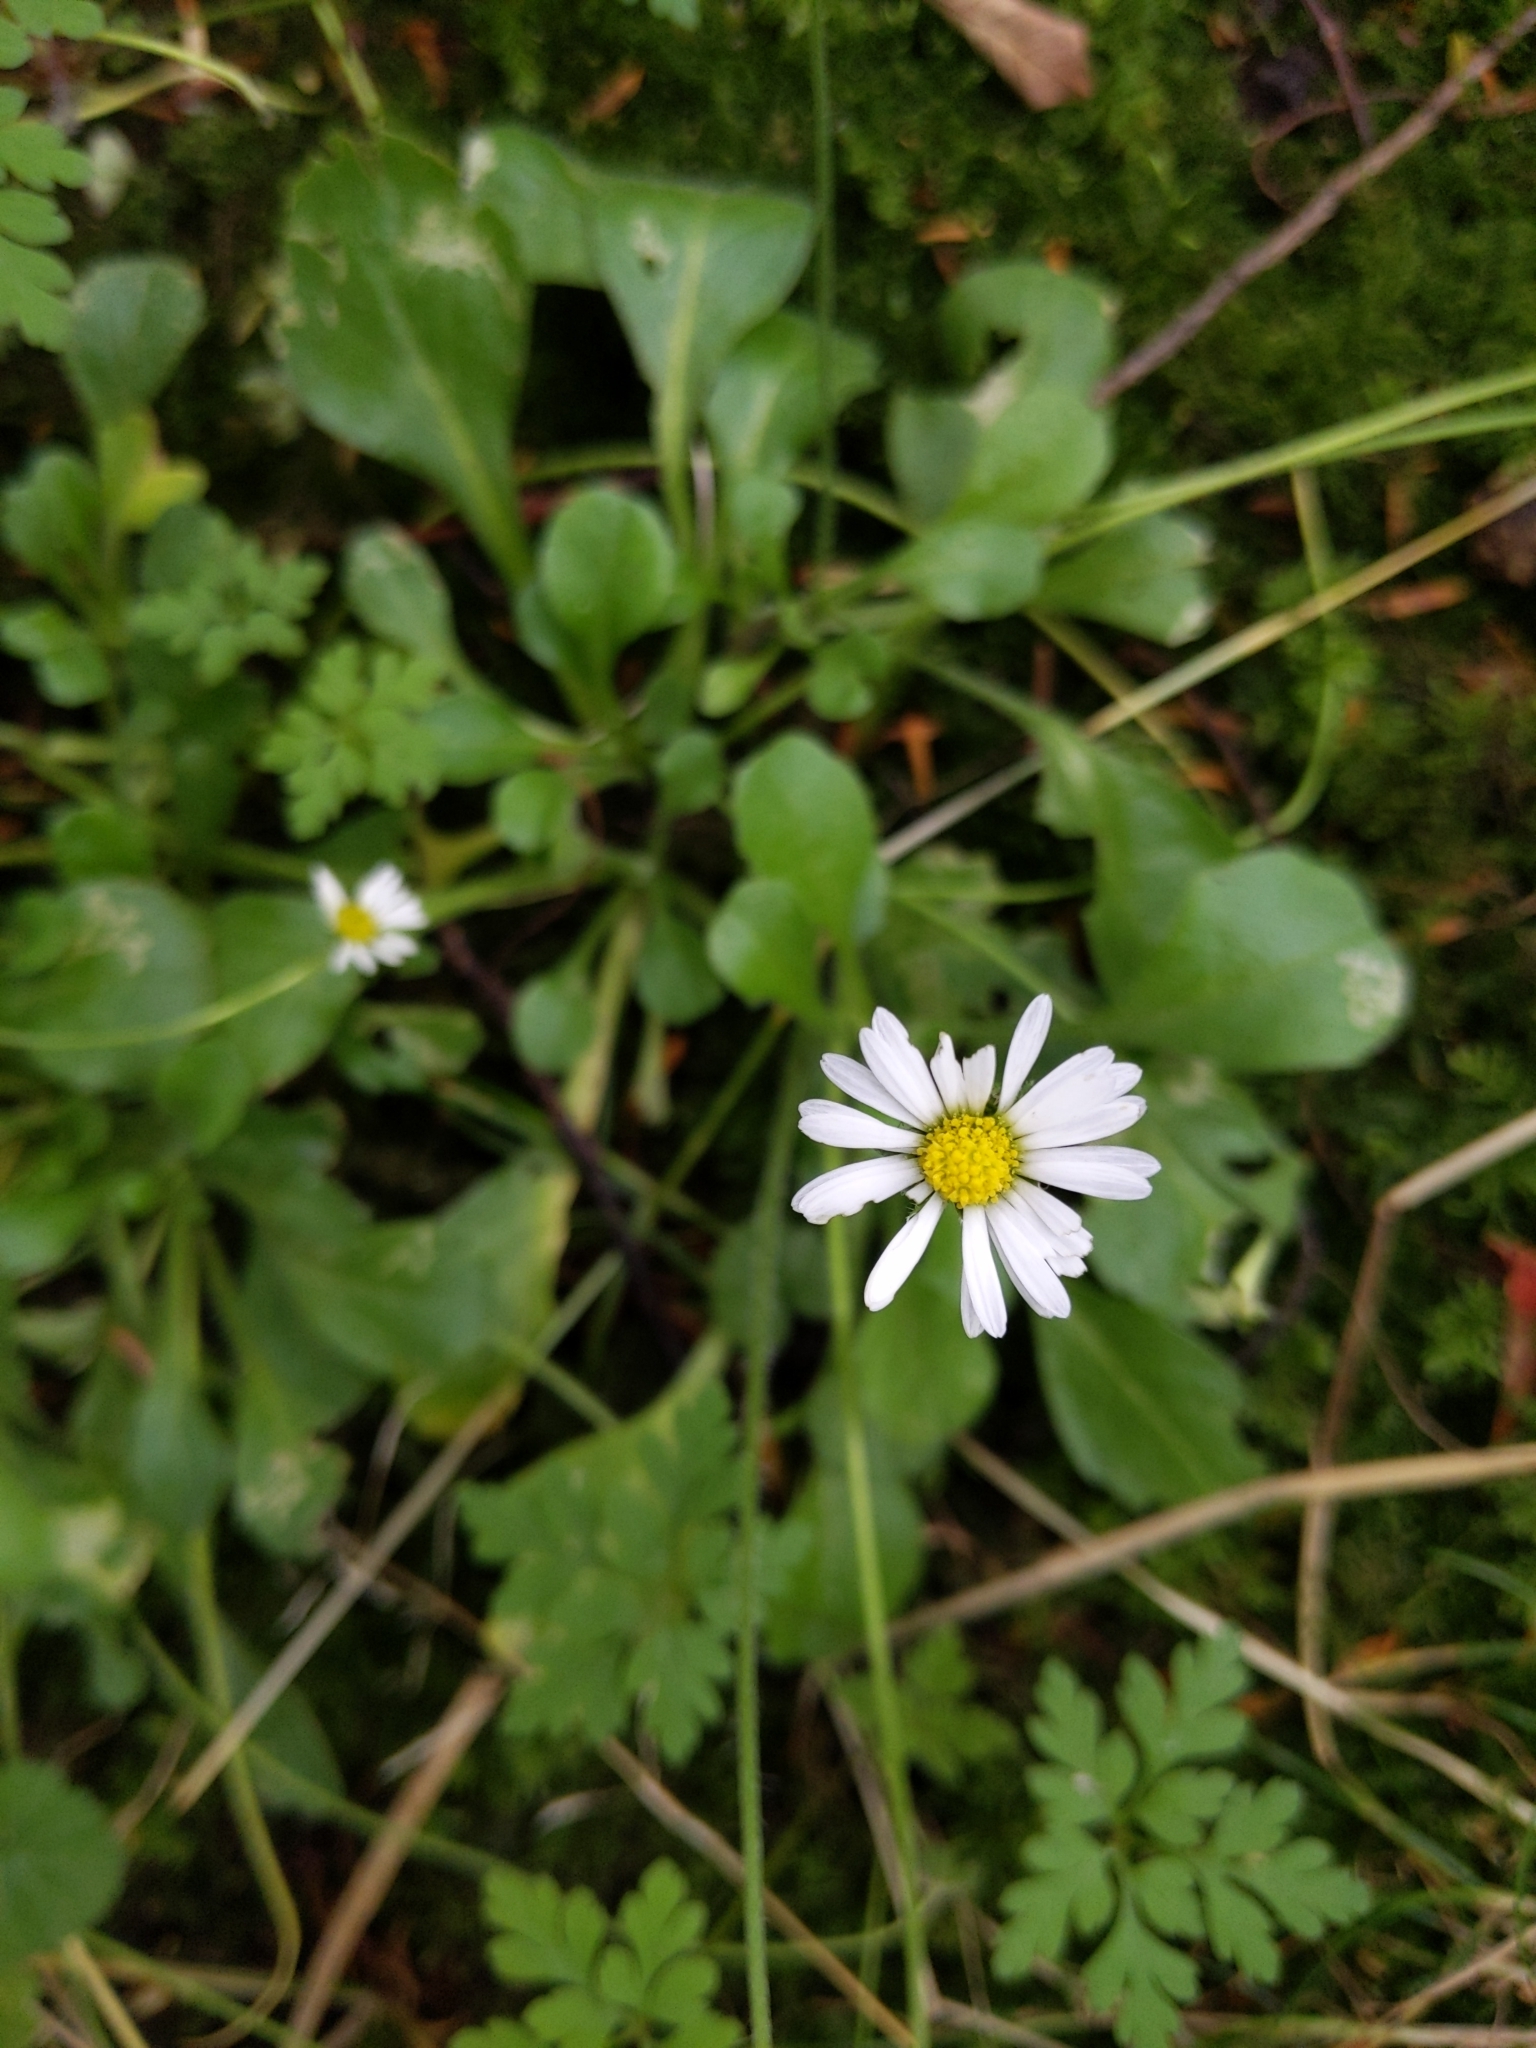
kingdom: Plantae
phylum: Tracheophyta
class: Magnoliopsida
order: Asterales
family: Asteraceae
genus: Bellis
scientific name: Bellis perennis
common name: Lawndaisy
